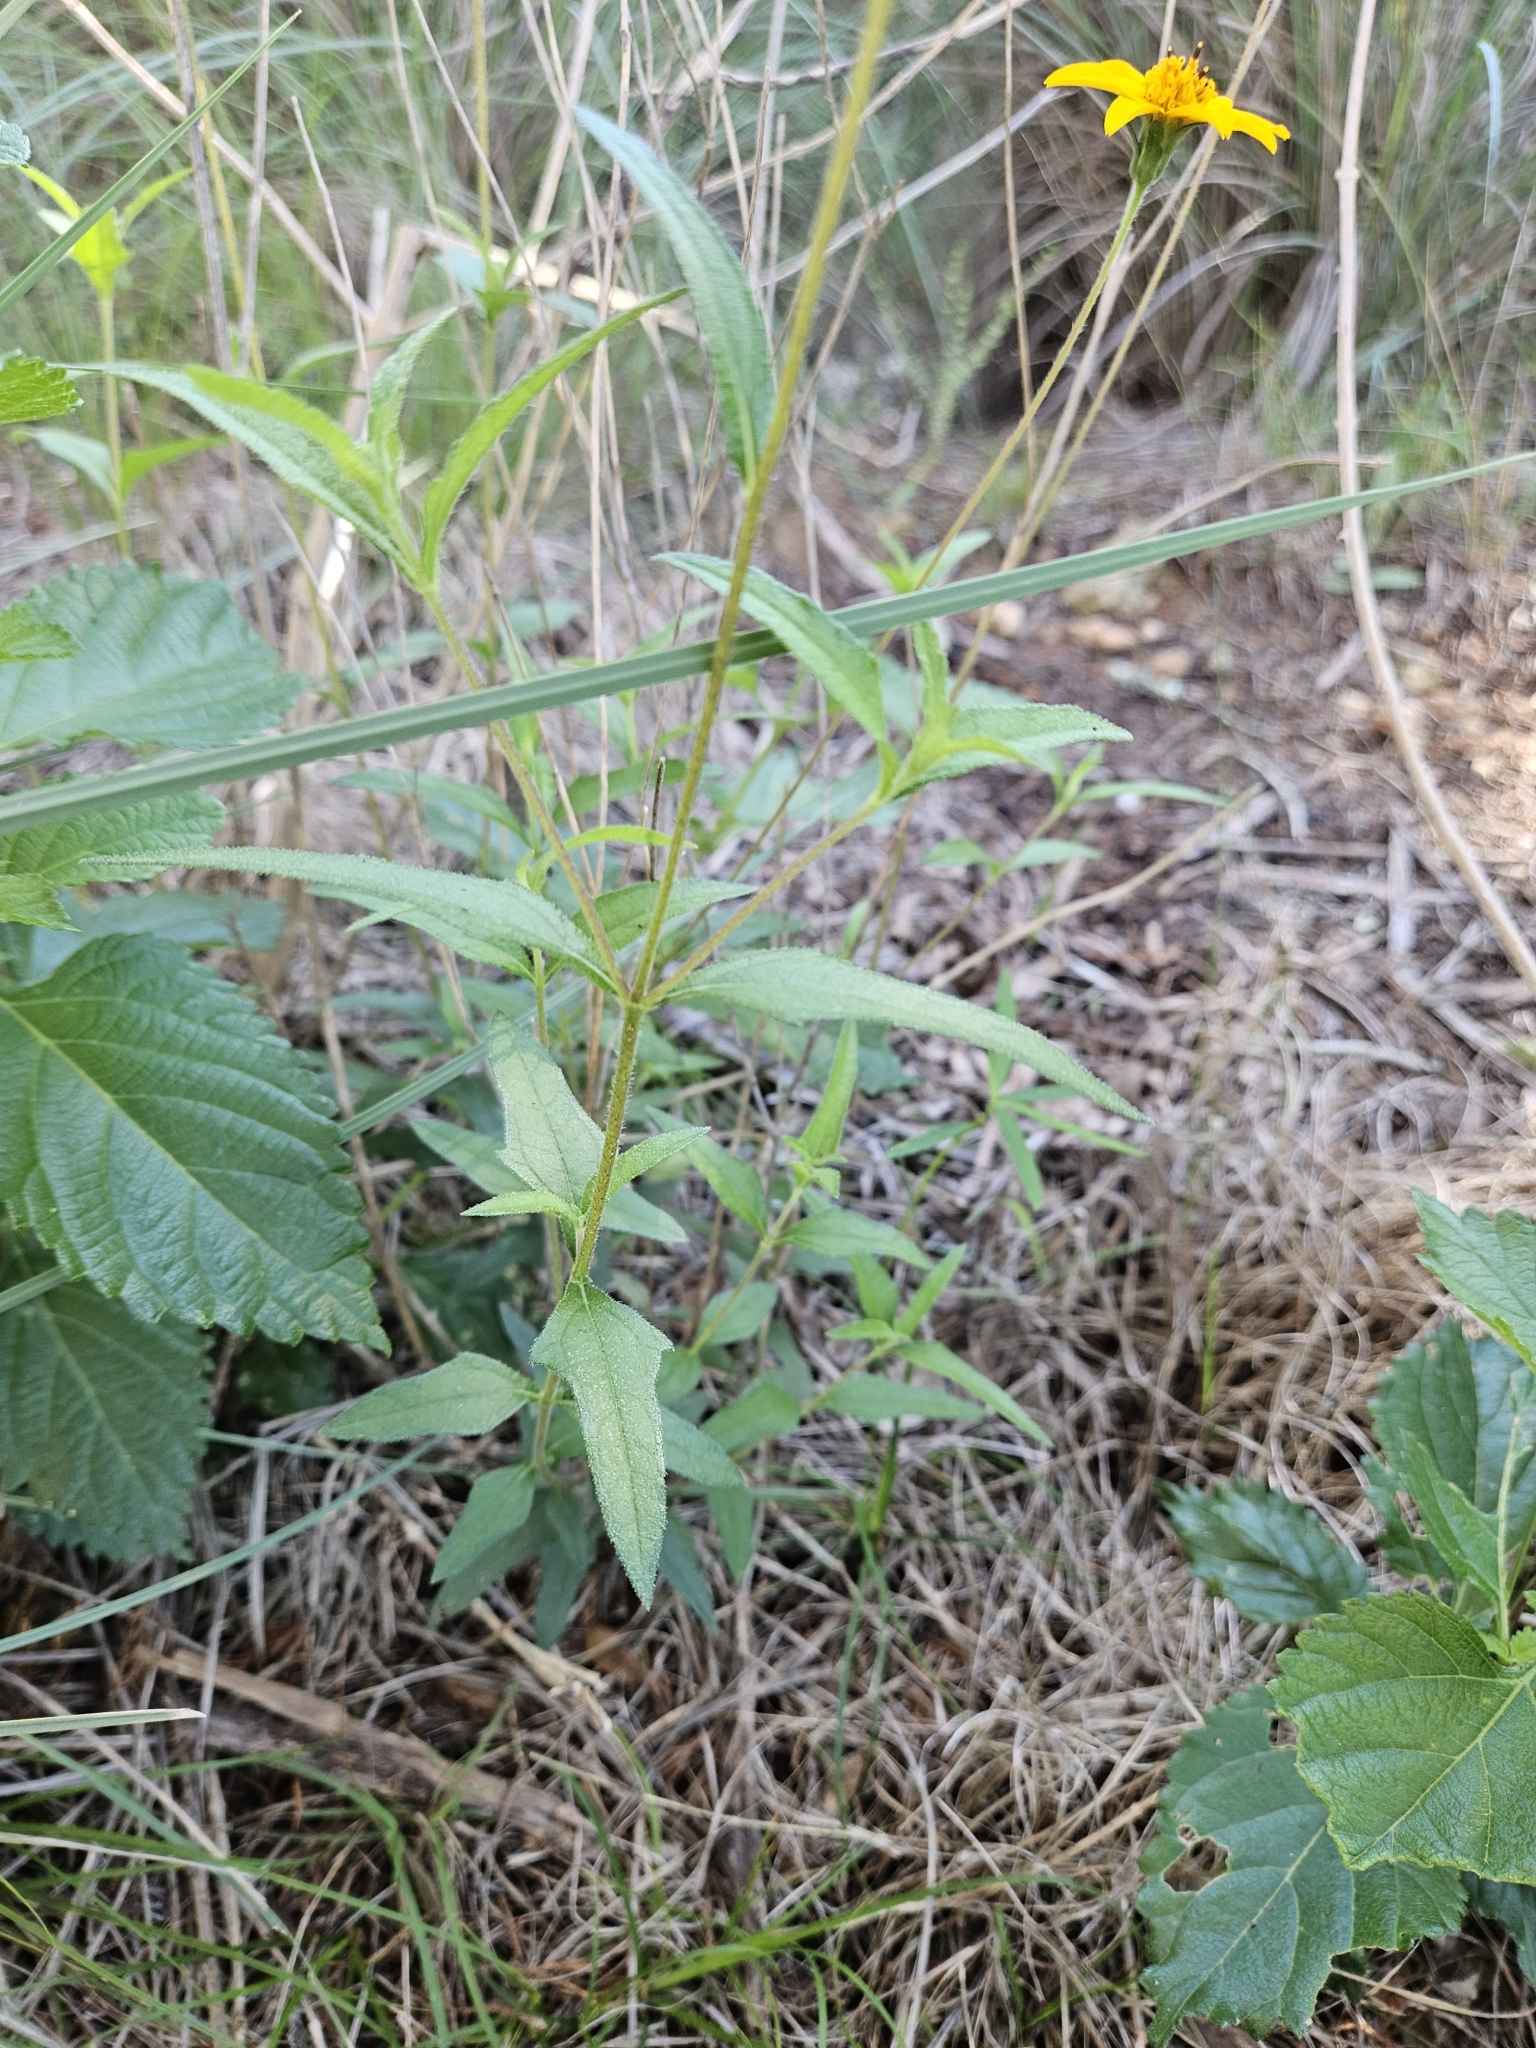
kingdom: Plantae
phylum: Tracheophyta
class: Magnoliopsida
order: Asterales
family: Asteraceae
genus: Wedelia
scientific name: Wedelia acapulcensis
